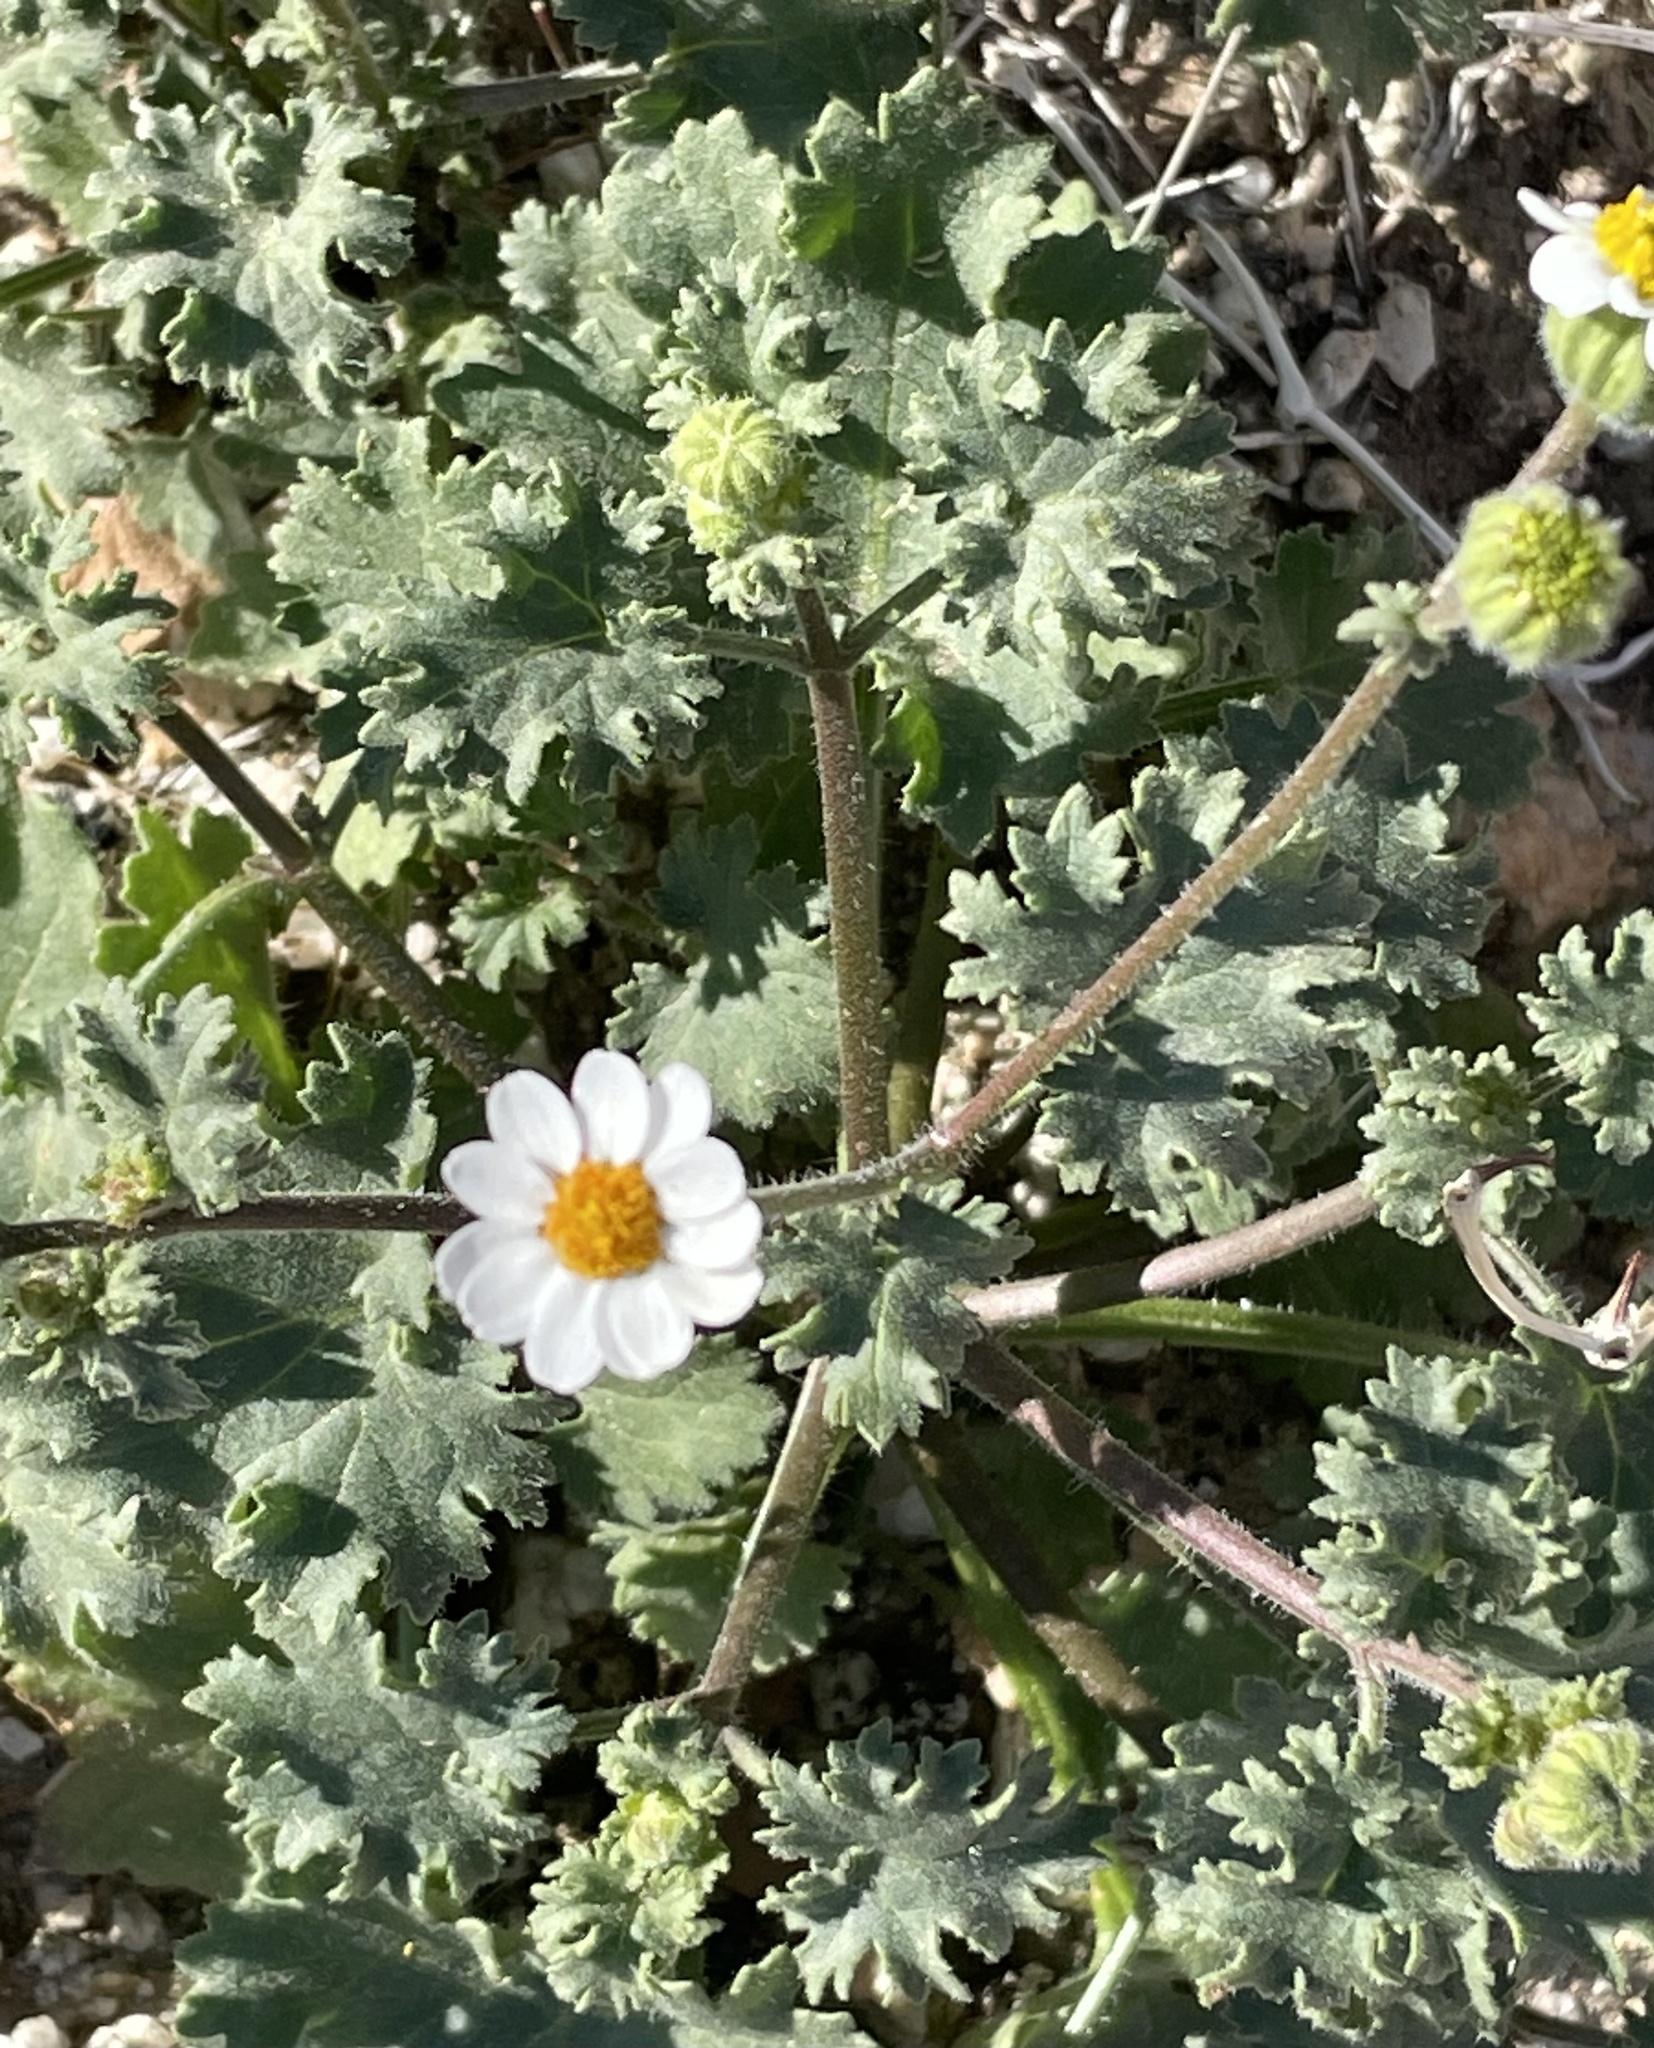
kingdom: Plantae
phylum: Tracheophyta
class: Magnoliopsida
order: Asterales
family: Asteraceae
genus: Laphamia
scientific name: Laphamia emoryi
